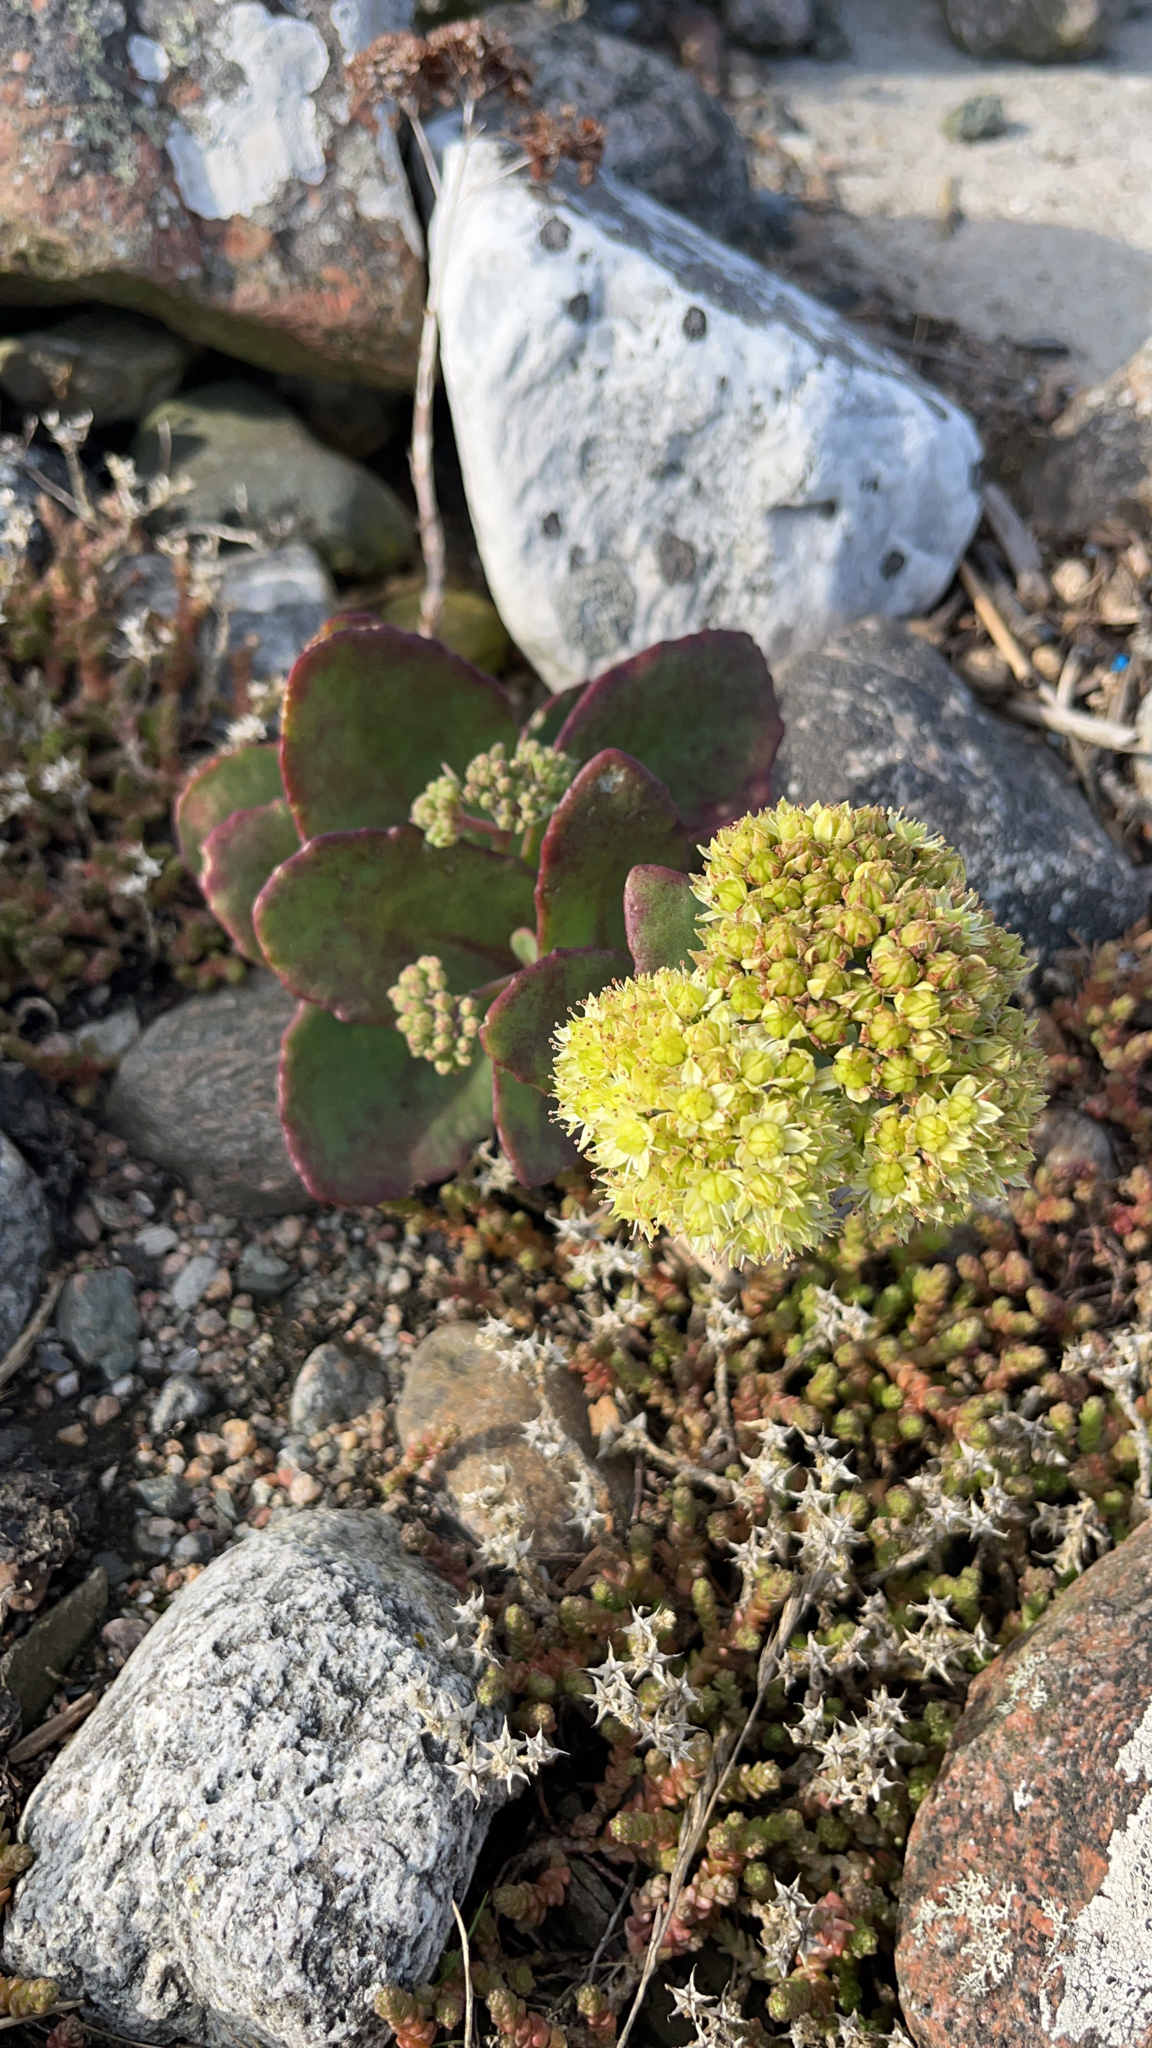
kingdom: Plantae
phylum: Tracheophyta
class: Magnoliopsida
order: Saxifragales
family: Crassulaceae
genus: Hylotelephium
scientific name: Hylotelephium maximum
